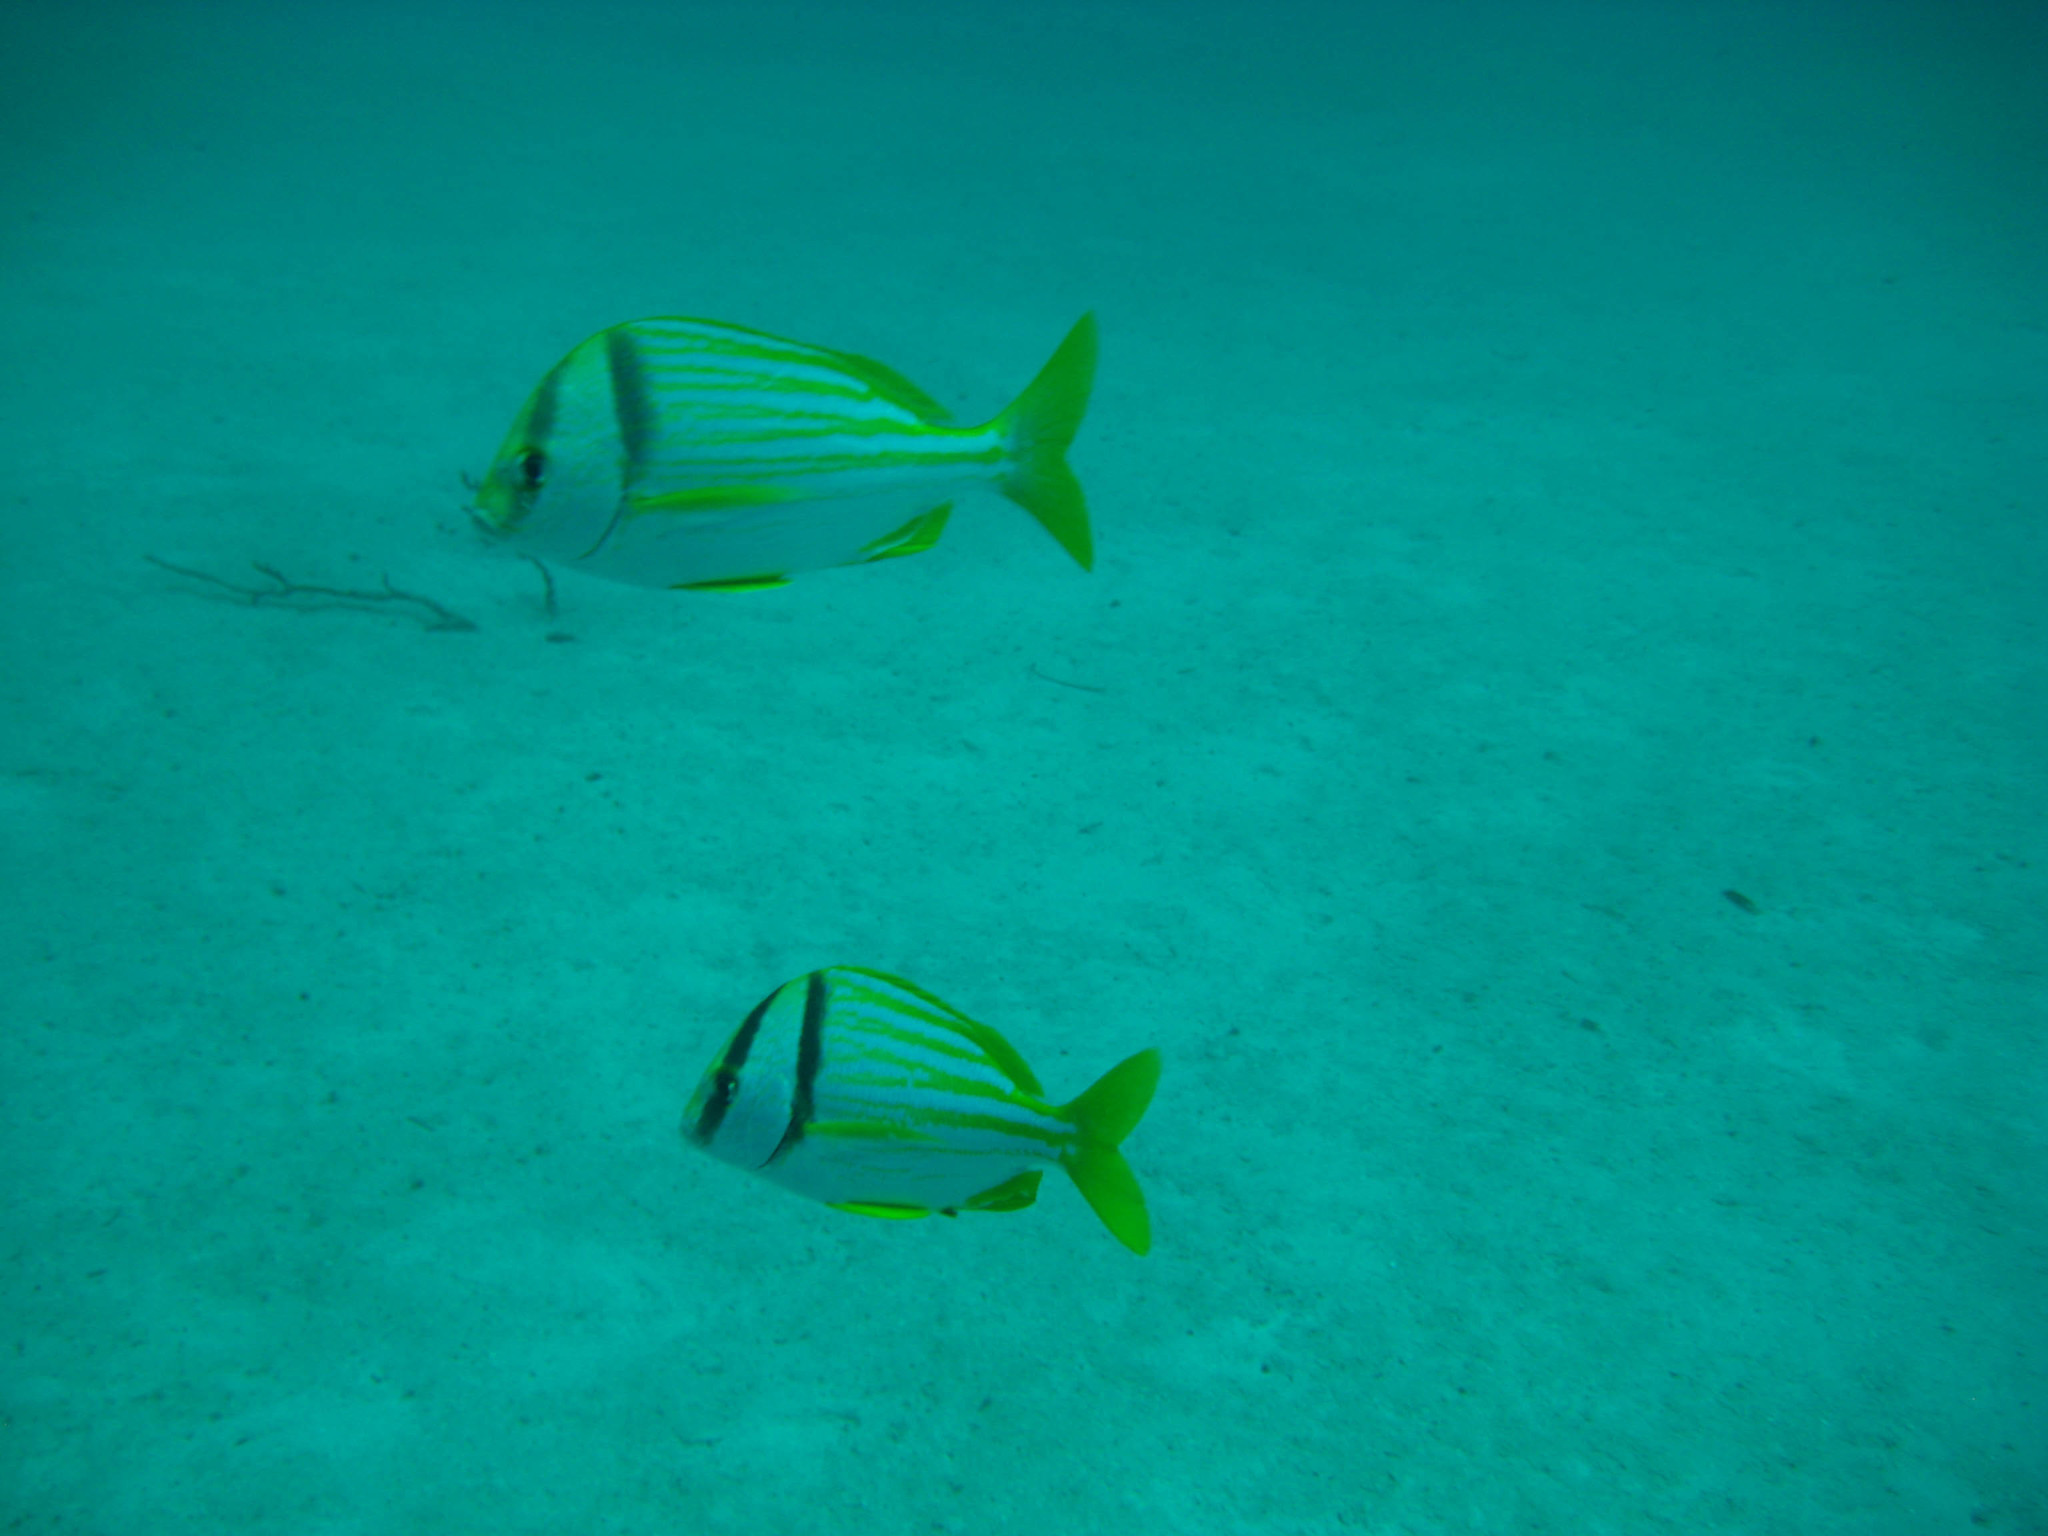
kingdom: Animalia
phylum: Chordata
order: Perciformes
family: Haemulidae
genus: Anisotremus
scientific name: Anisotremus virginicus
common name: Porkfish
